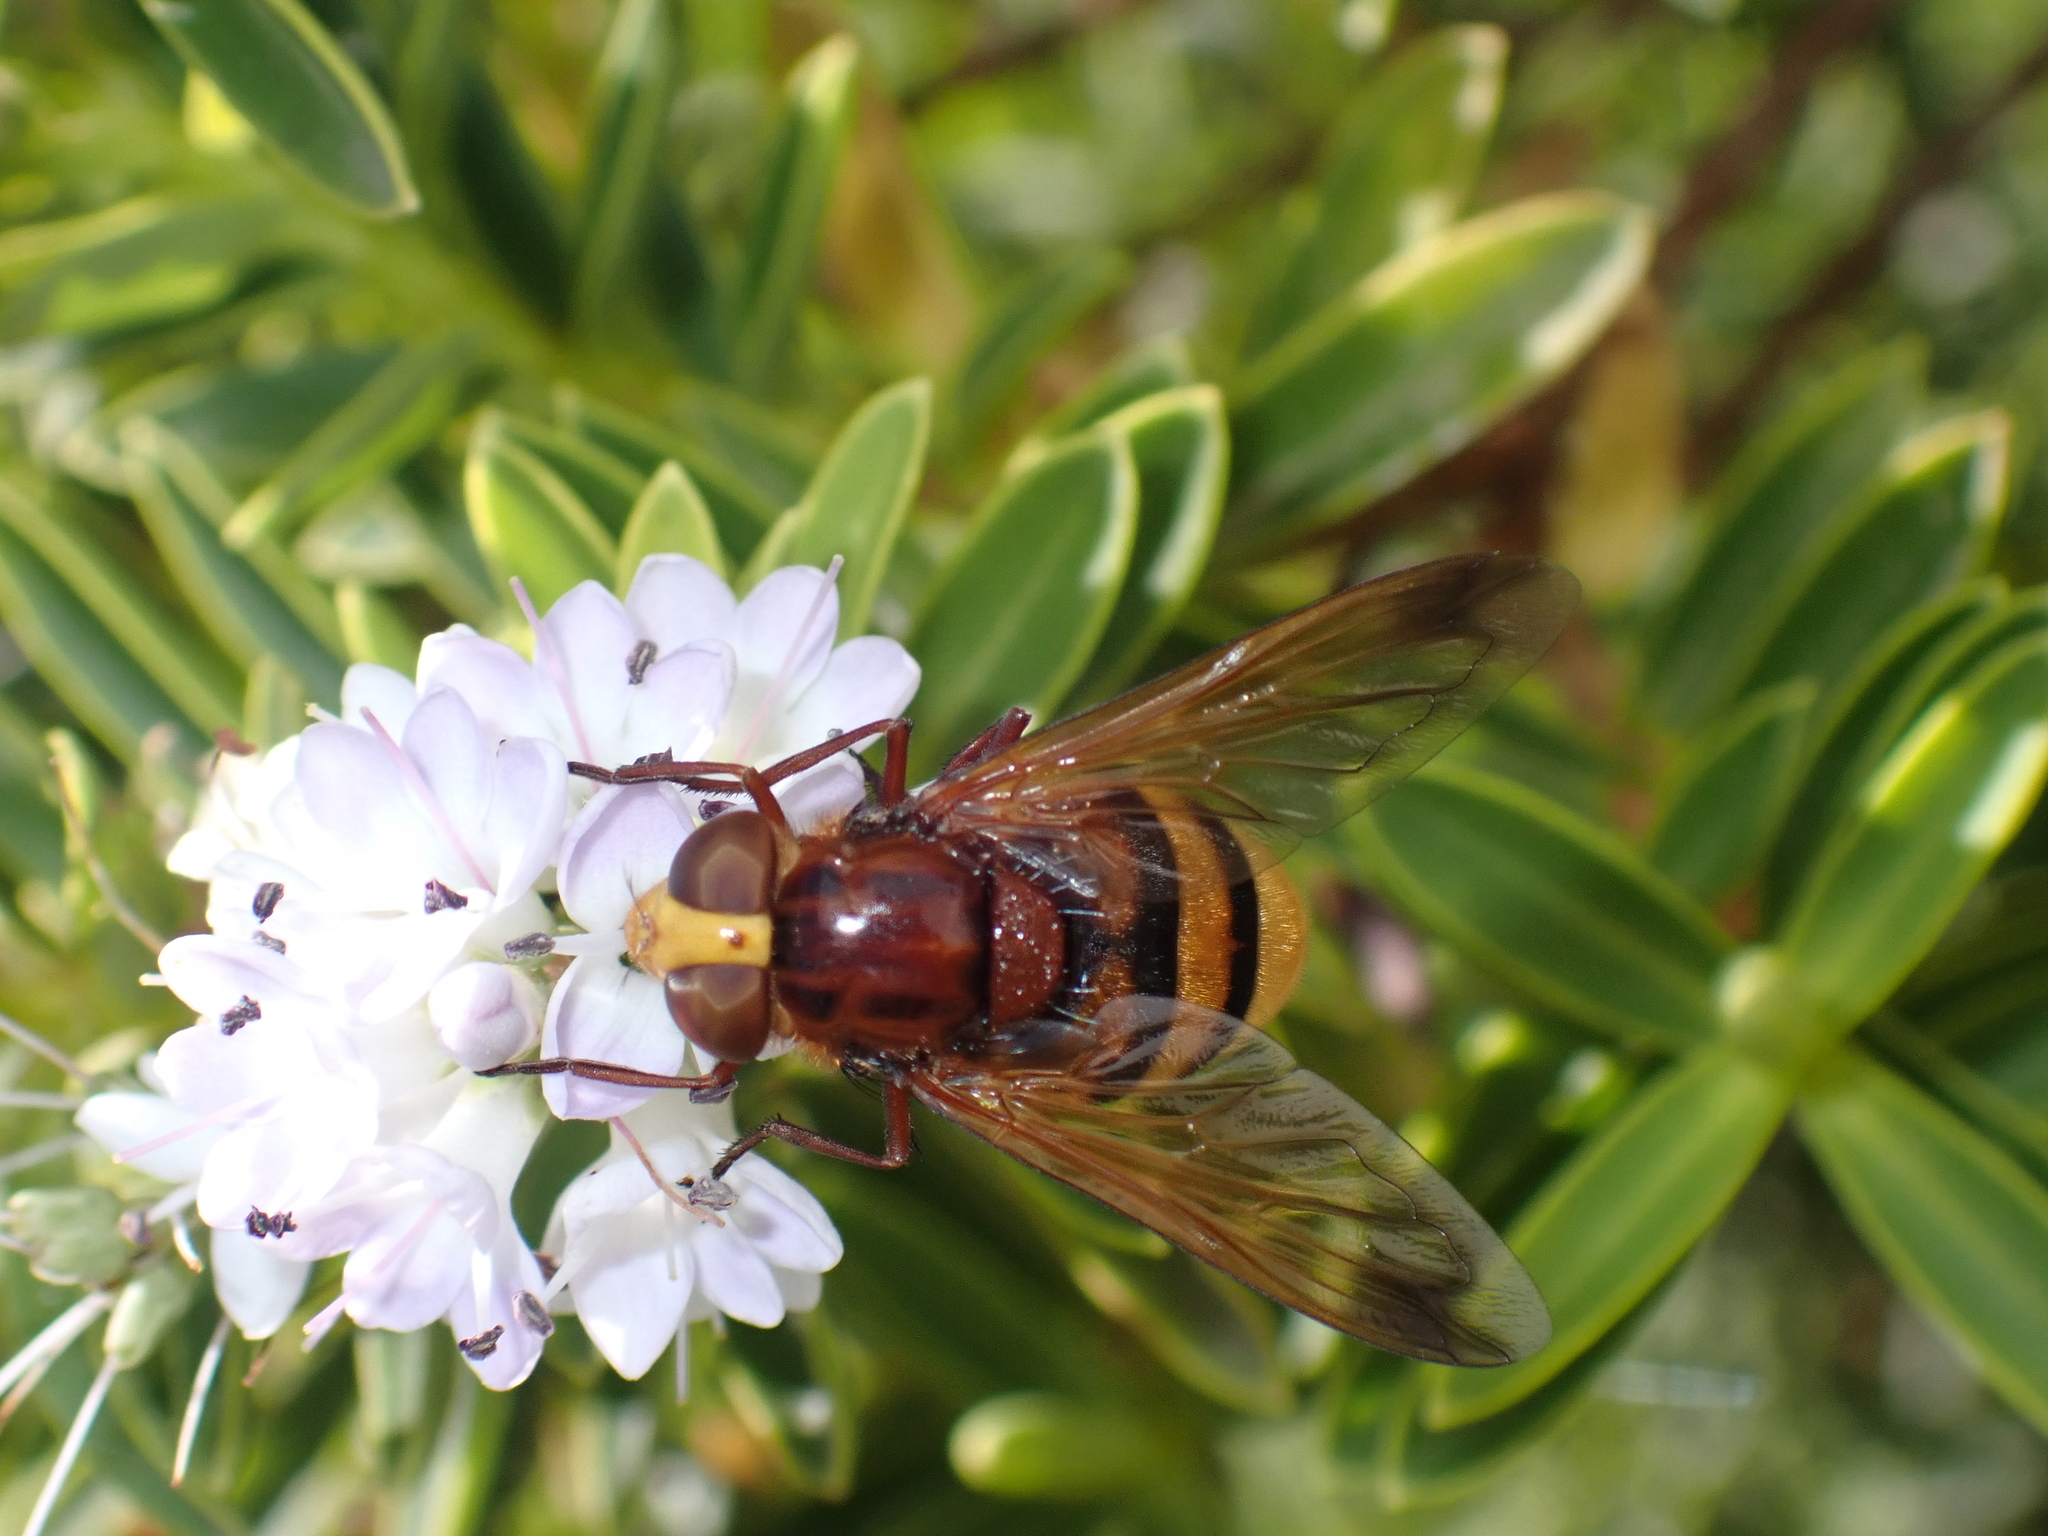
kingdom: Animalia
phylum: Arthropoda
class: Insecta
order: Diptera
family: Syrphidae
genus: Volucella
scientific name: Volucella zonaria
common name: Hornet hoverfly
